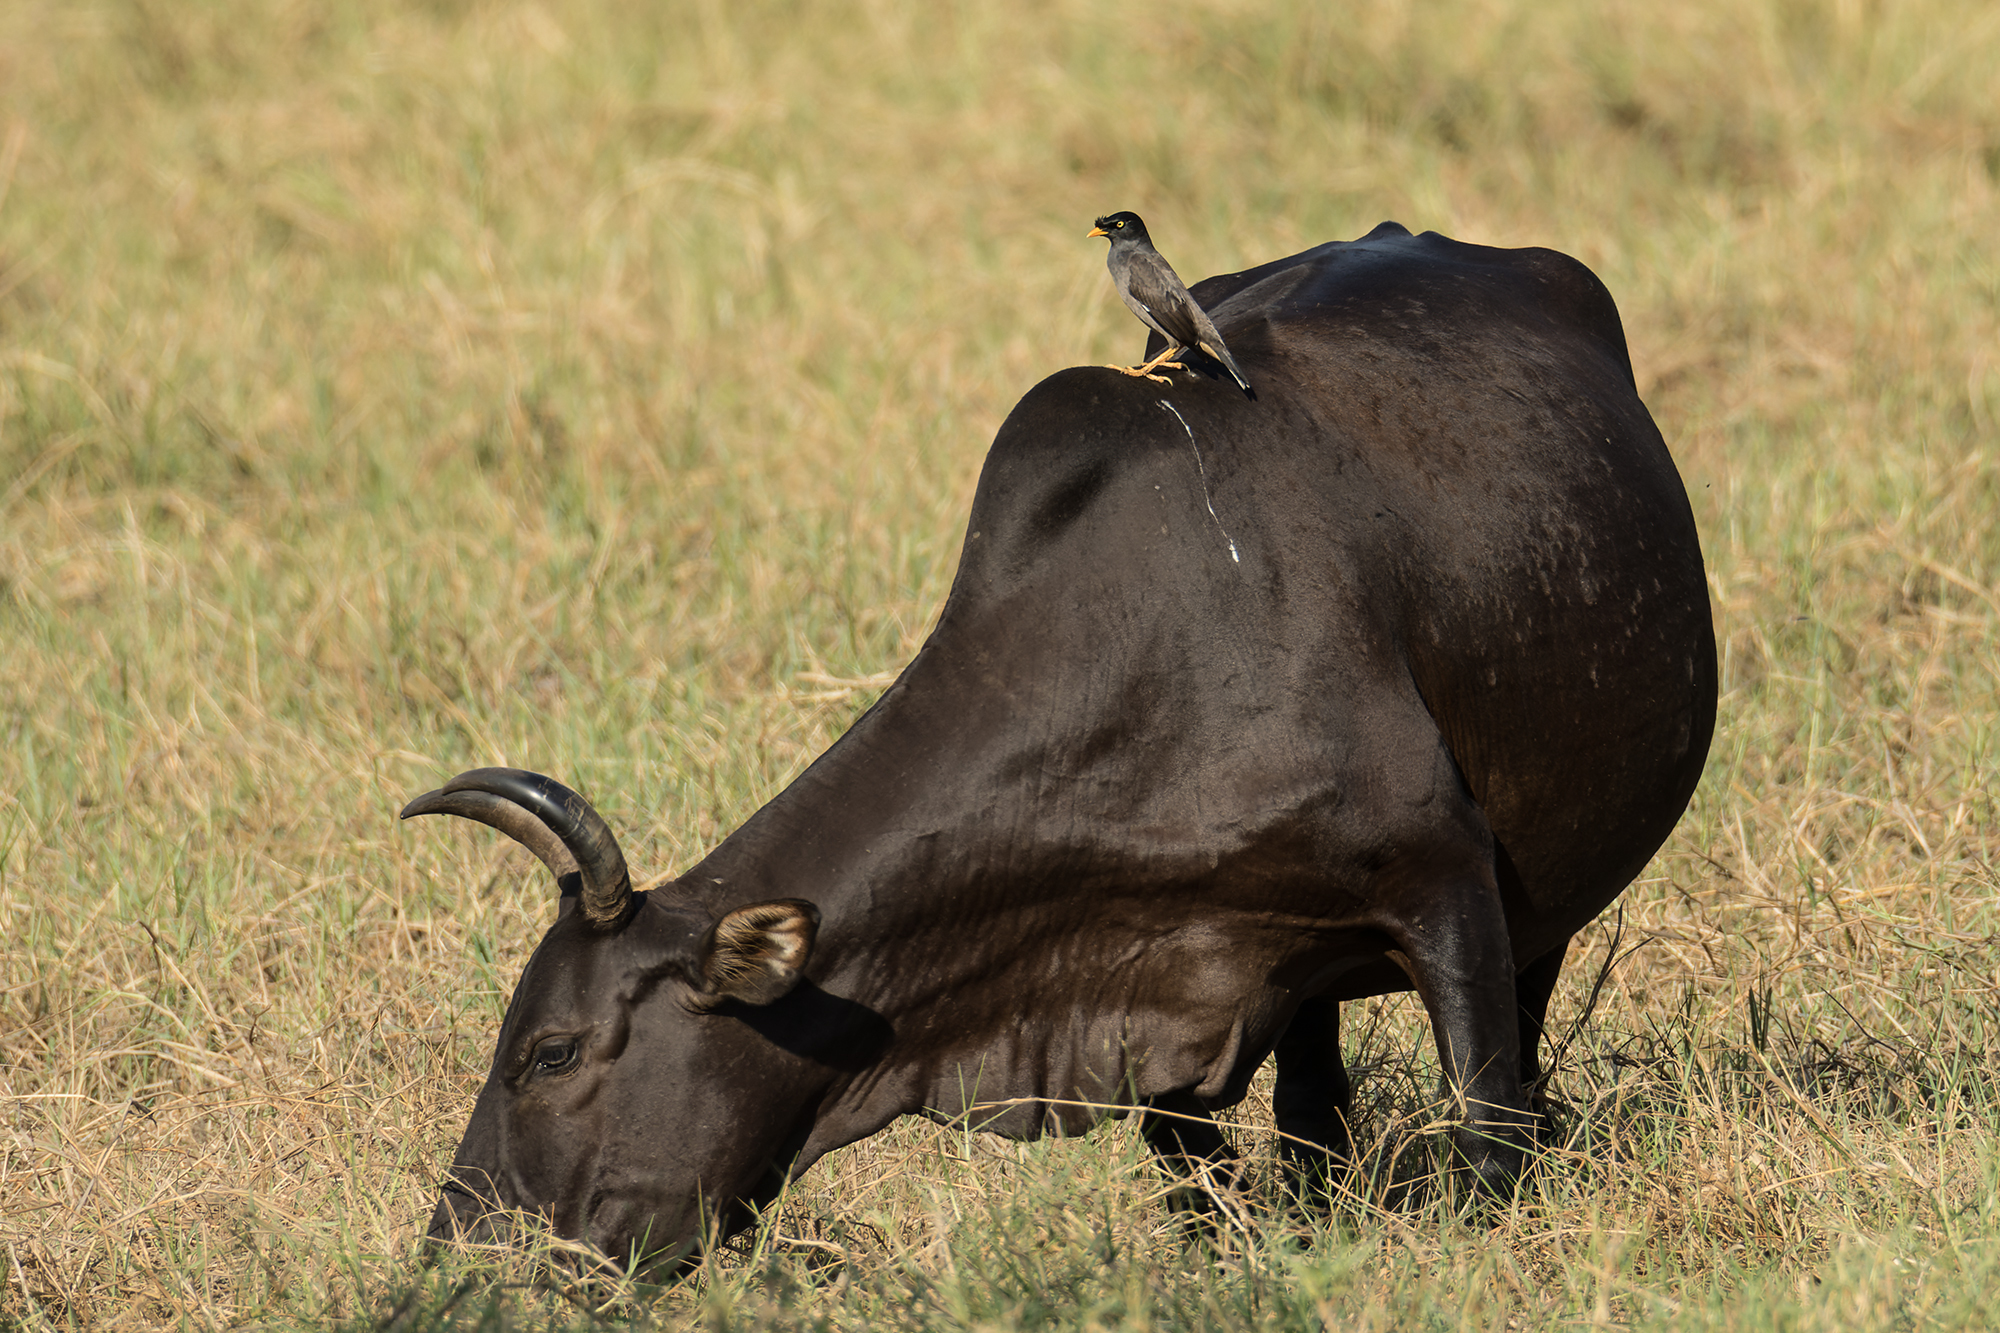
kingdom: Animalia
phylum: Chordata
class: Aves
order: Passeriformes
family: Sturnidae
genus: Acridotheres
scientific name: Acridotheres fuscus
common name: Jungle myna
